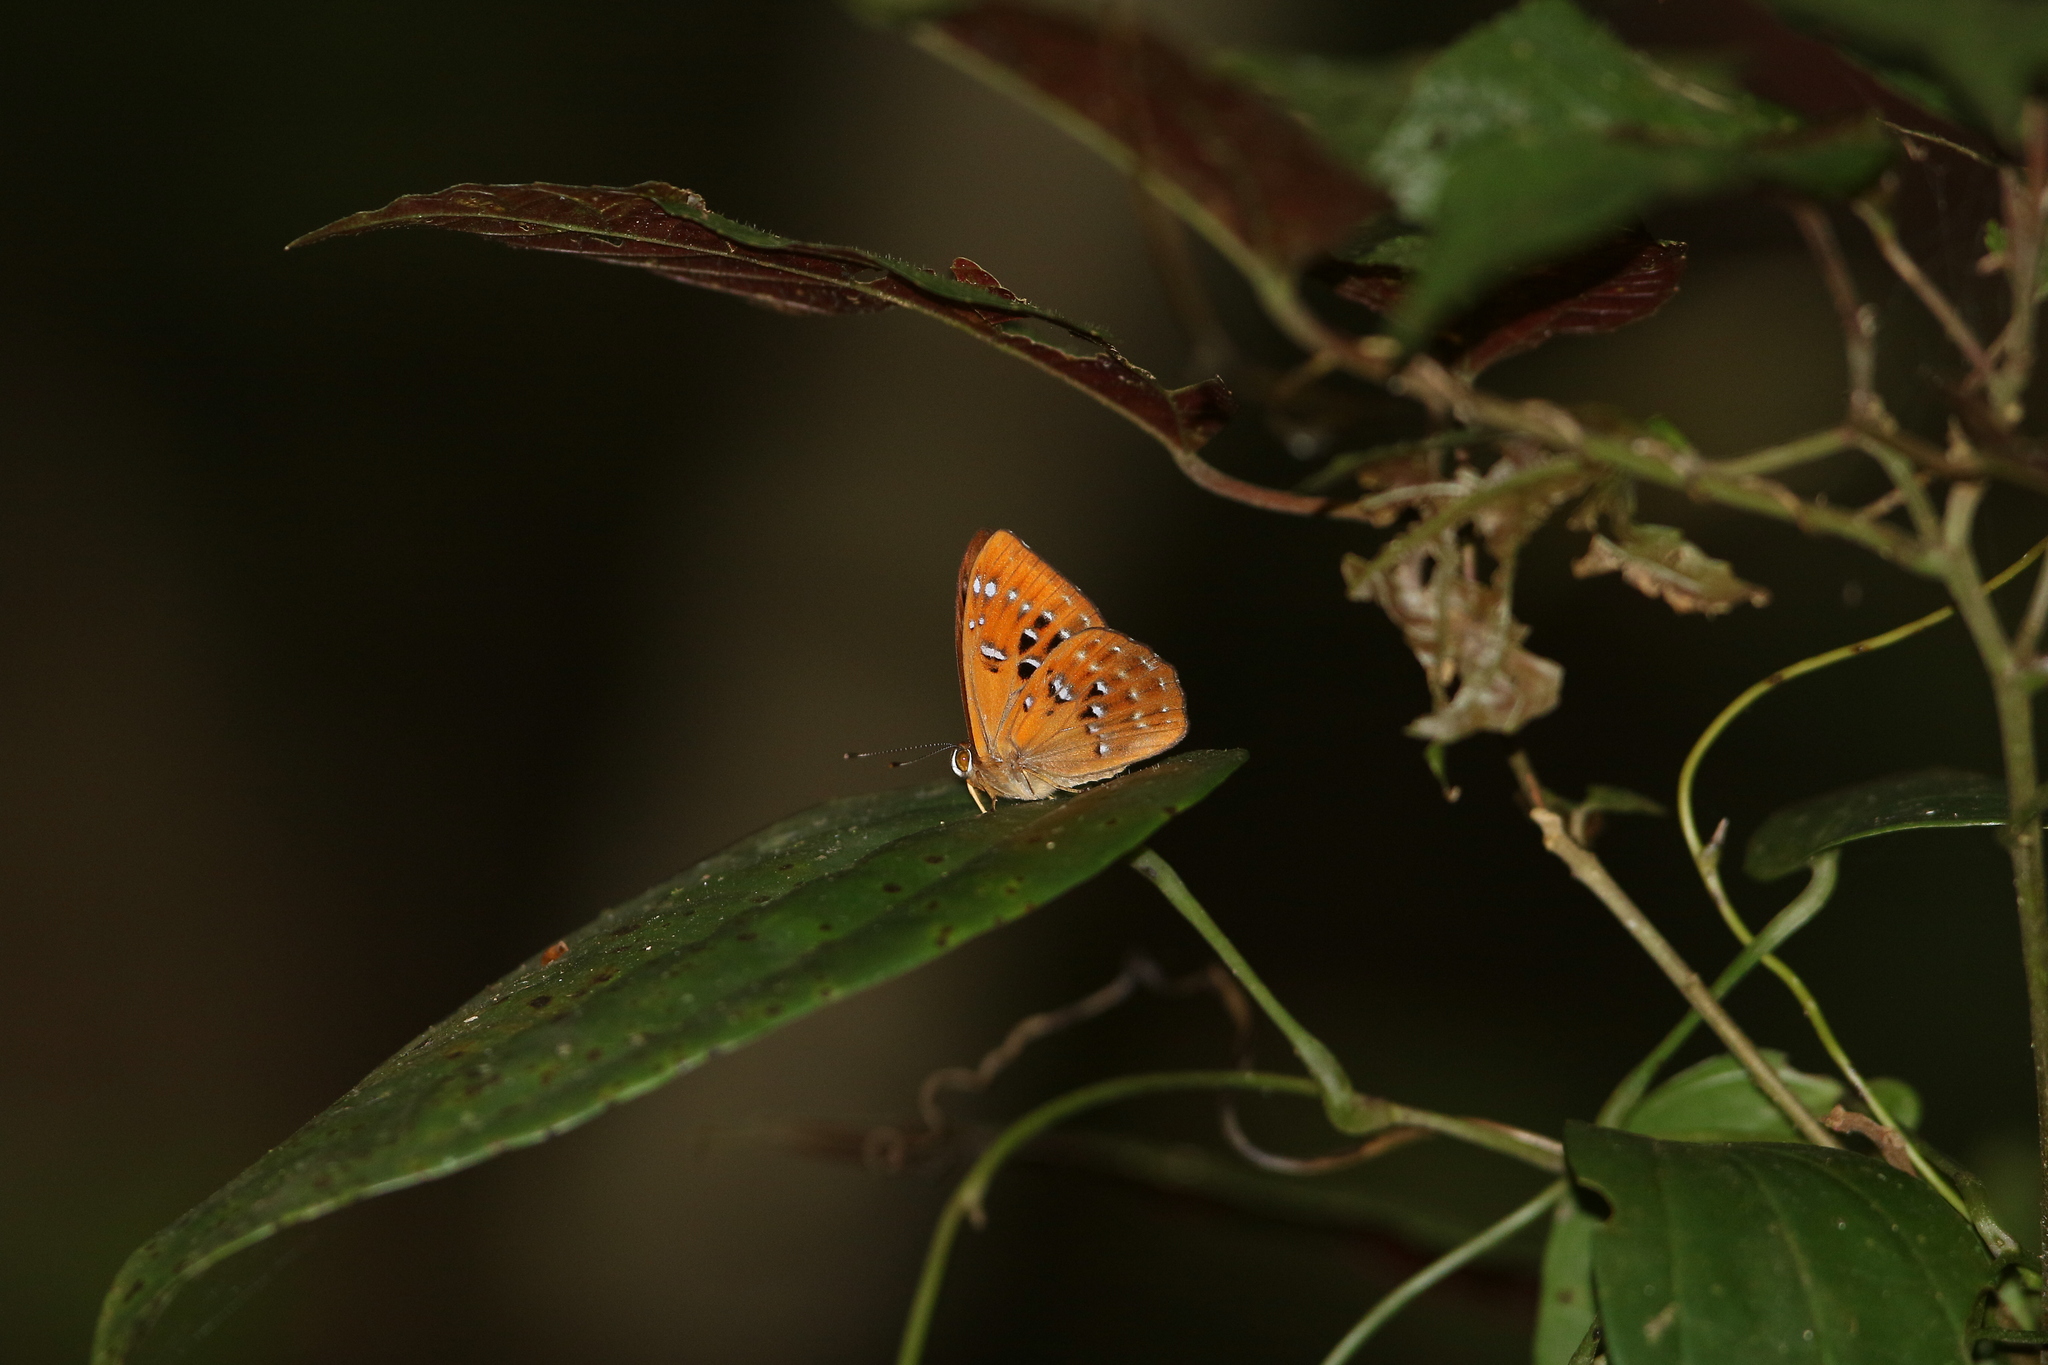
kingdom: Animalia
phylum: Arthropoda
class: Insecta
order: Lepidoptera
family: Erebidae
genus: Dysschema
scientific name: Dysschema
